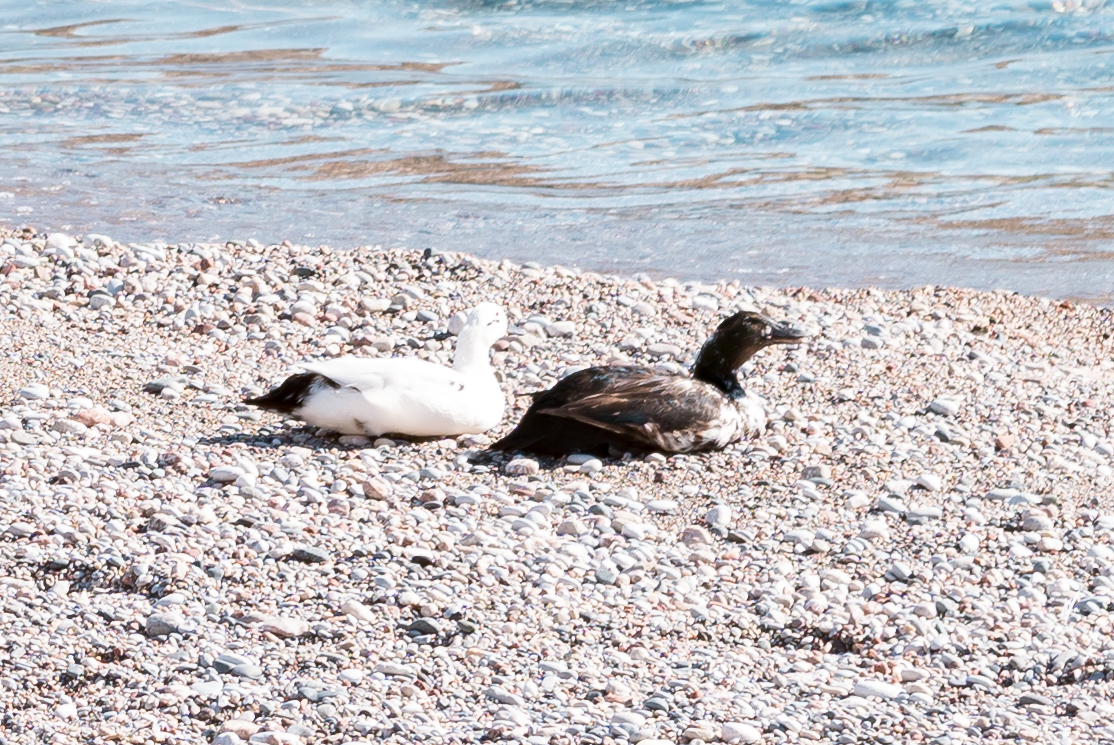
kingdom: Animalia
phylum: Chordata
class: Aves
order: Anseriformes
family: Anatidae
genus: Anas
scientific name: Anas platyrhynchos
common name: Mallard
